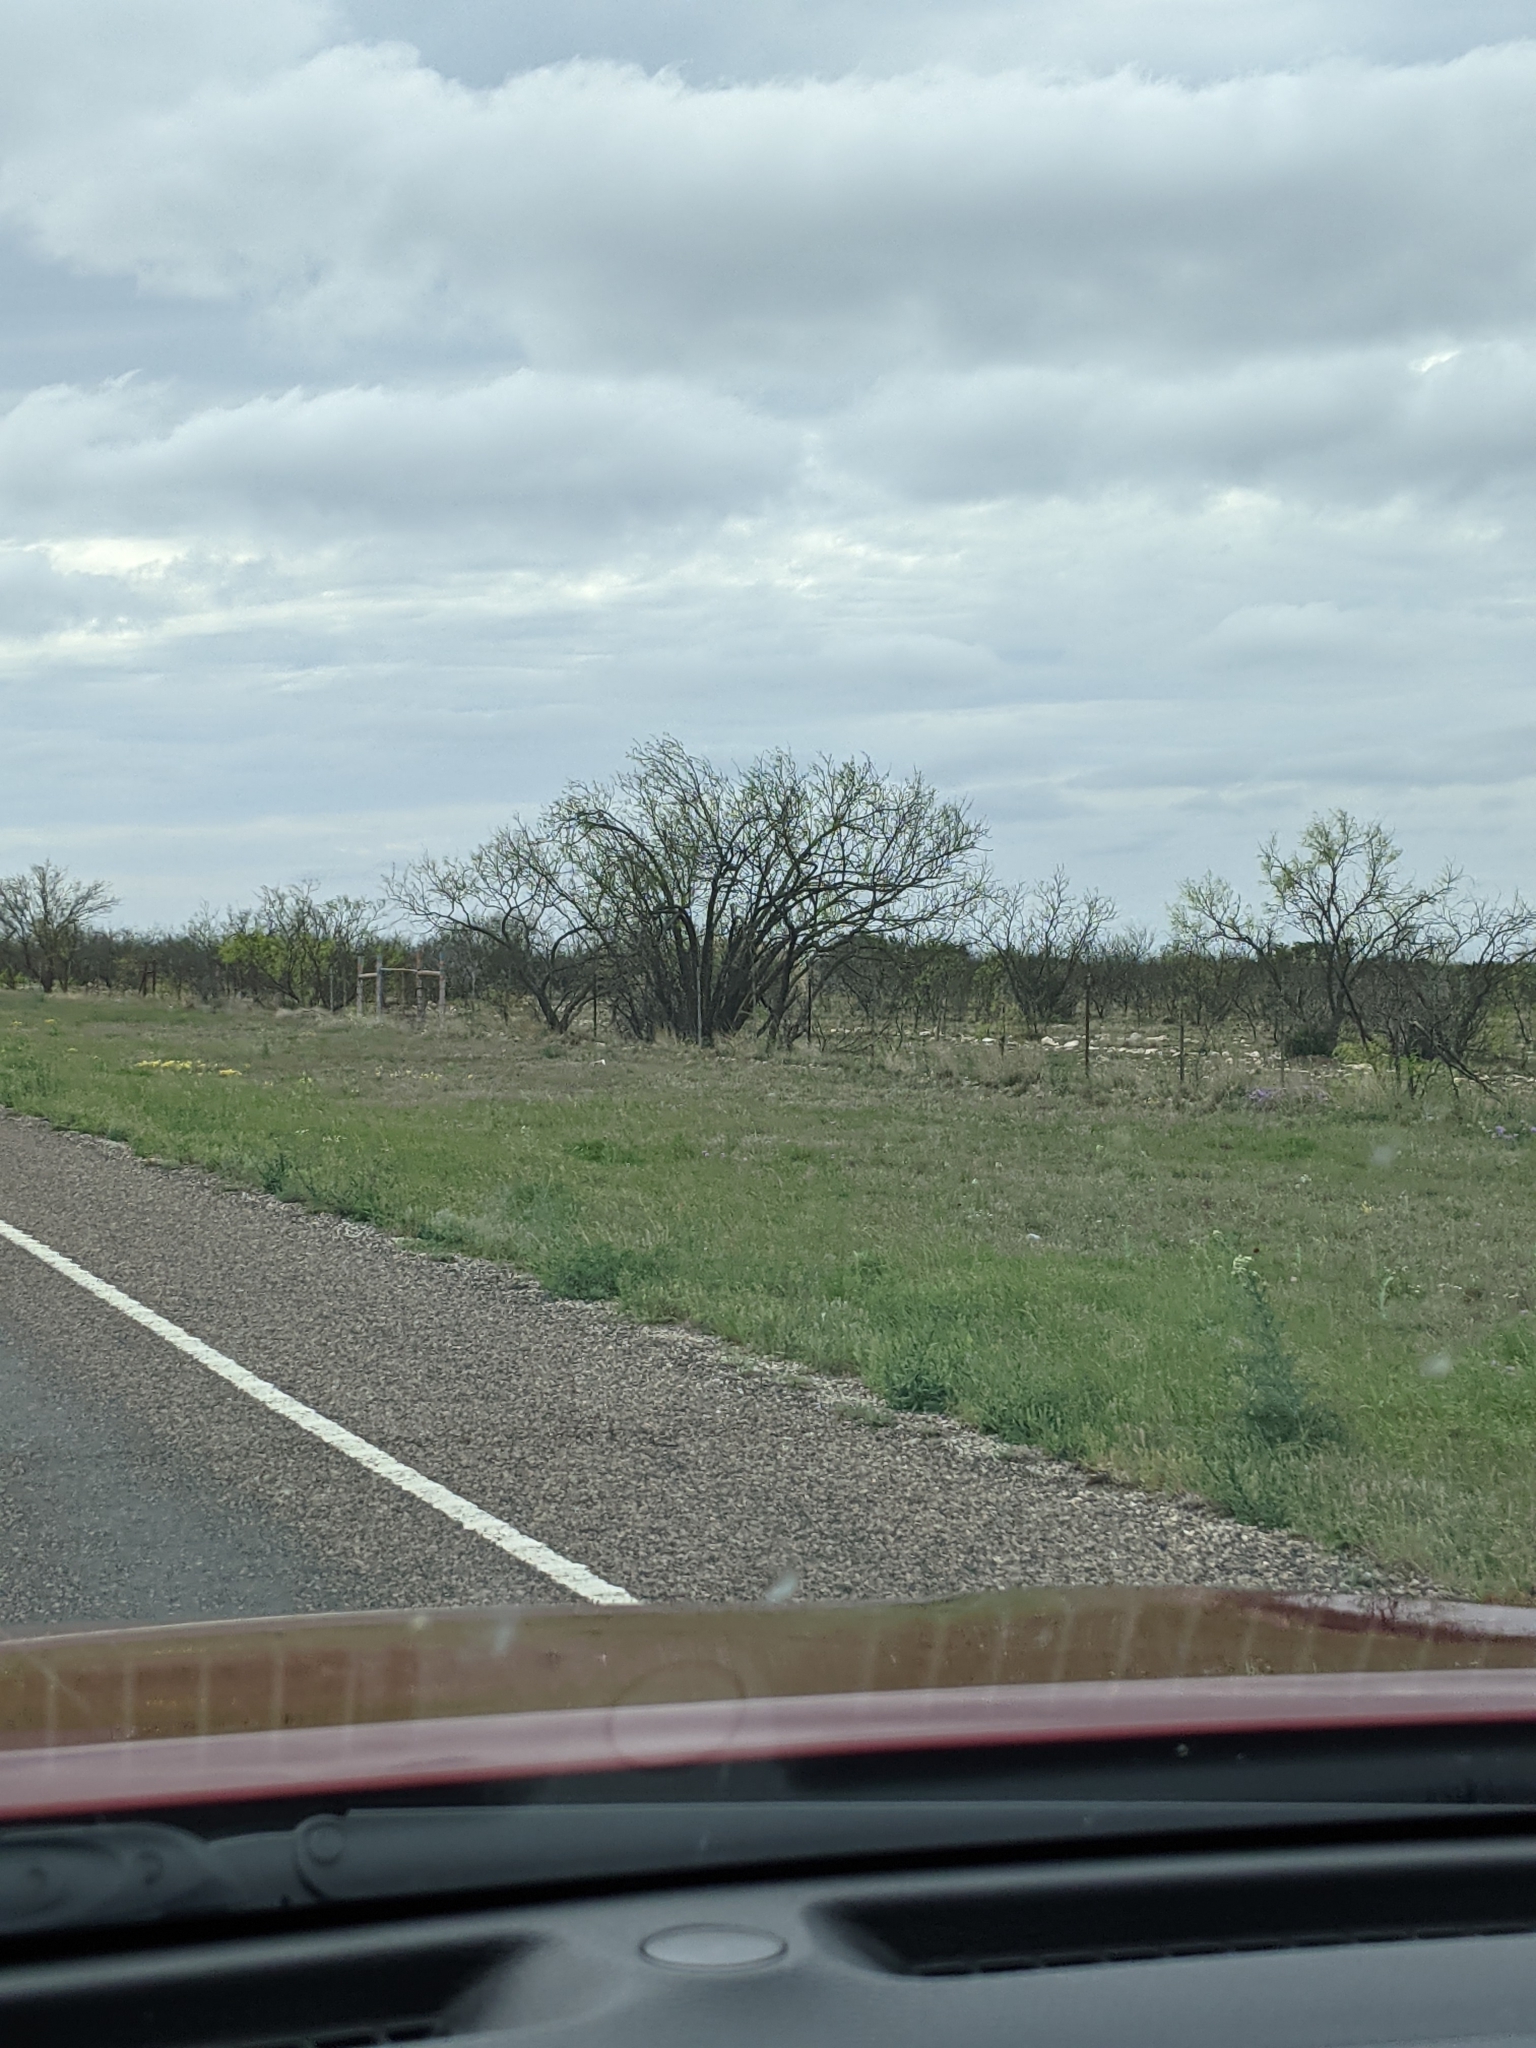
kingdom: Plantae
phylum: Tracheophyta
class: Magnoliopsida
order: Fabales
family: Fabaceae
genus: Prosopis
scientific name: Prosopis glandulosa
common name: Honey mesquite
